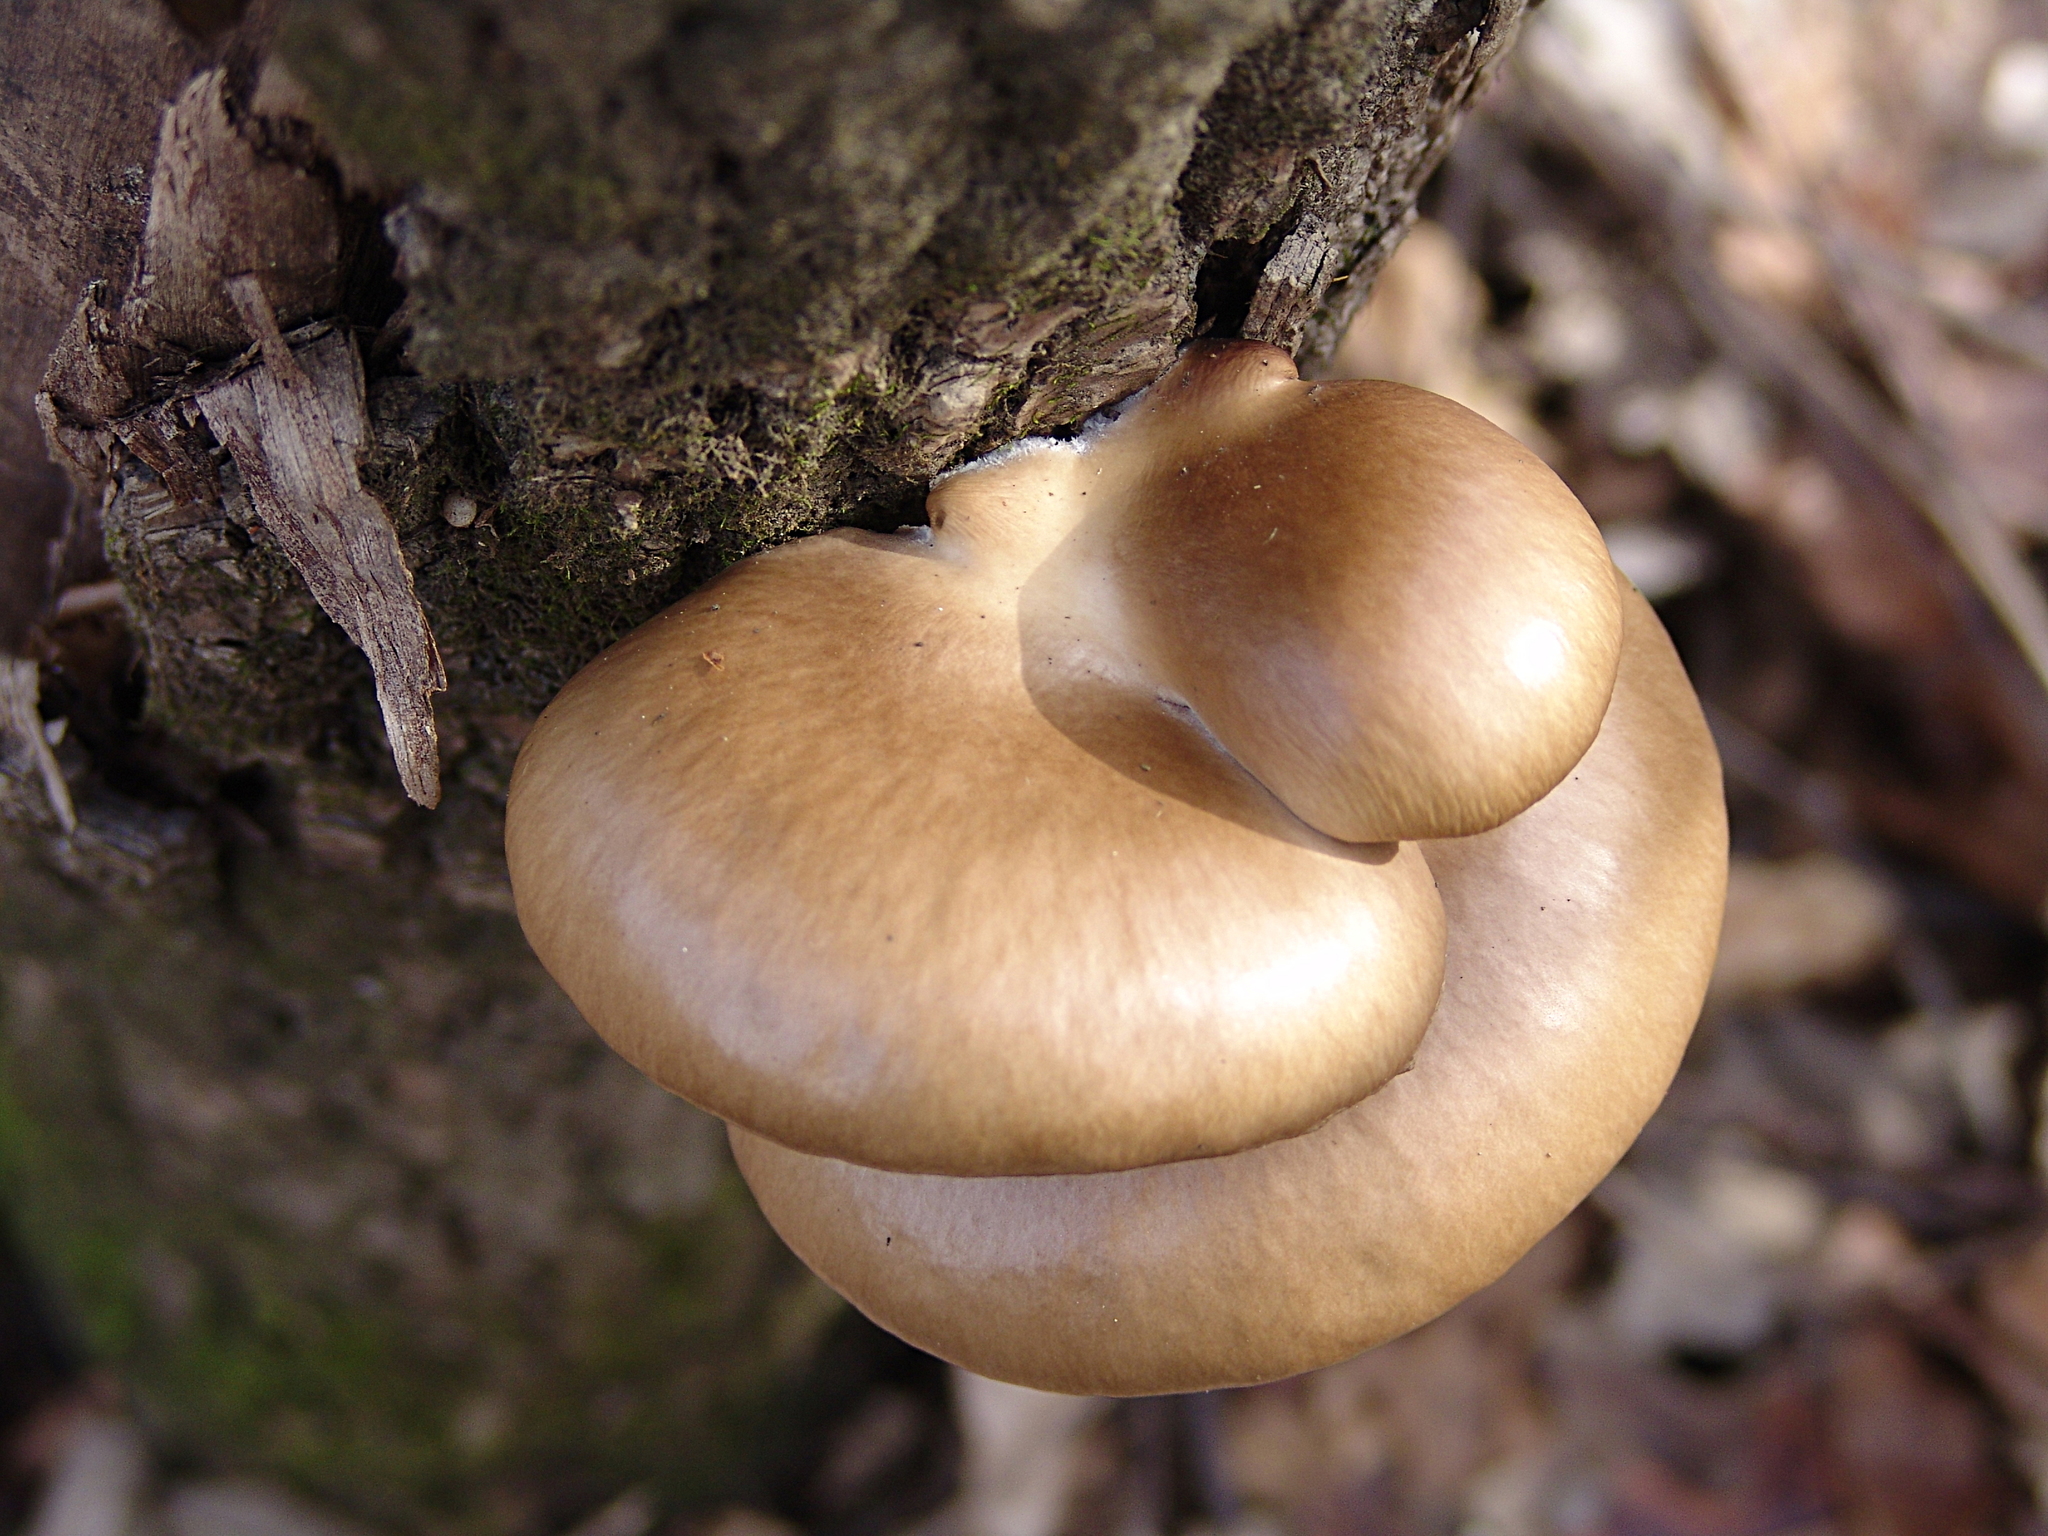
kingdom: Fungi
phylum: Basidiomycota
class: Agaricomycetes
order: Agaricales
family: Pleurotaceae
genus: Pleurotus
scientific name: Pleurotus ostreatus
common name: Oyster mushroom
